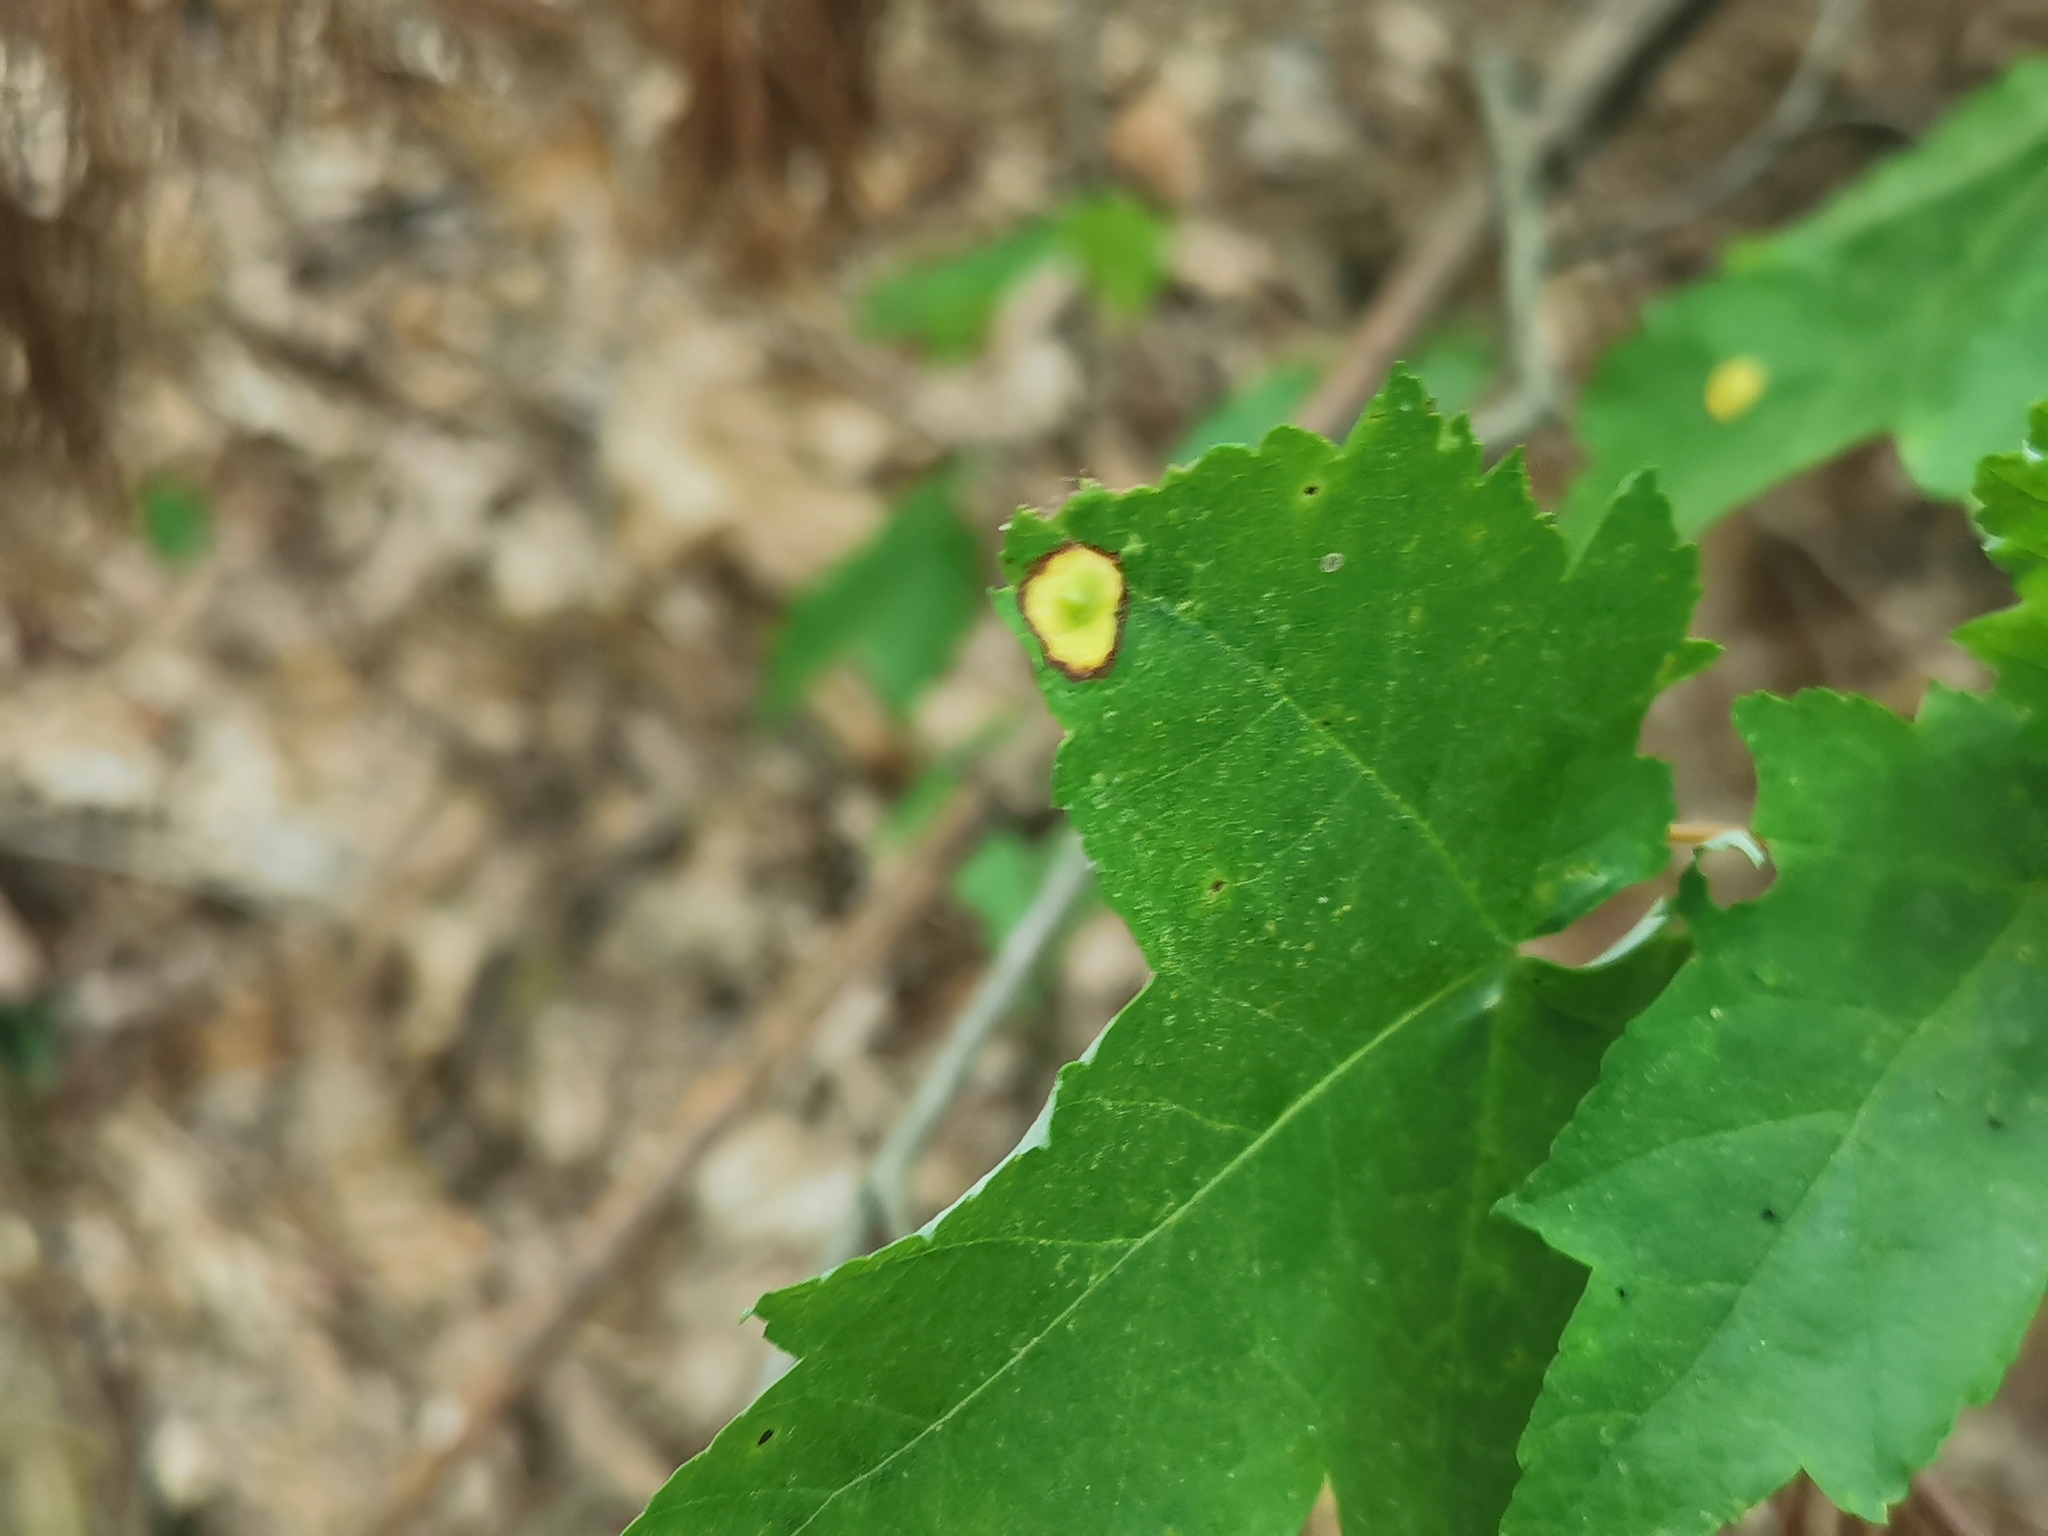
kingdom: Animalia
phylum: Arthropoda
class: Insecta
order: Diptera
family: Cecidomyiidae
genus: Acericecis
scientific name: Acericecis ocellaris
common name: Ocellate gall midge
